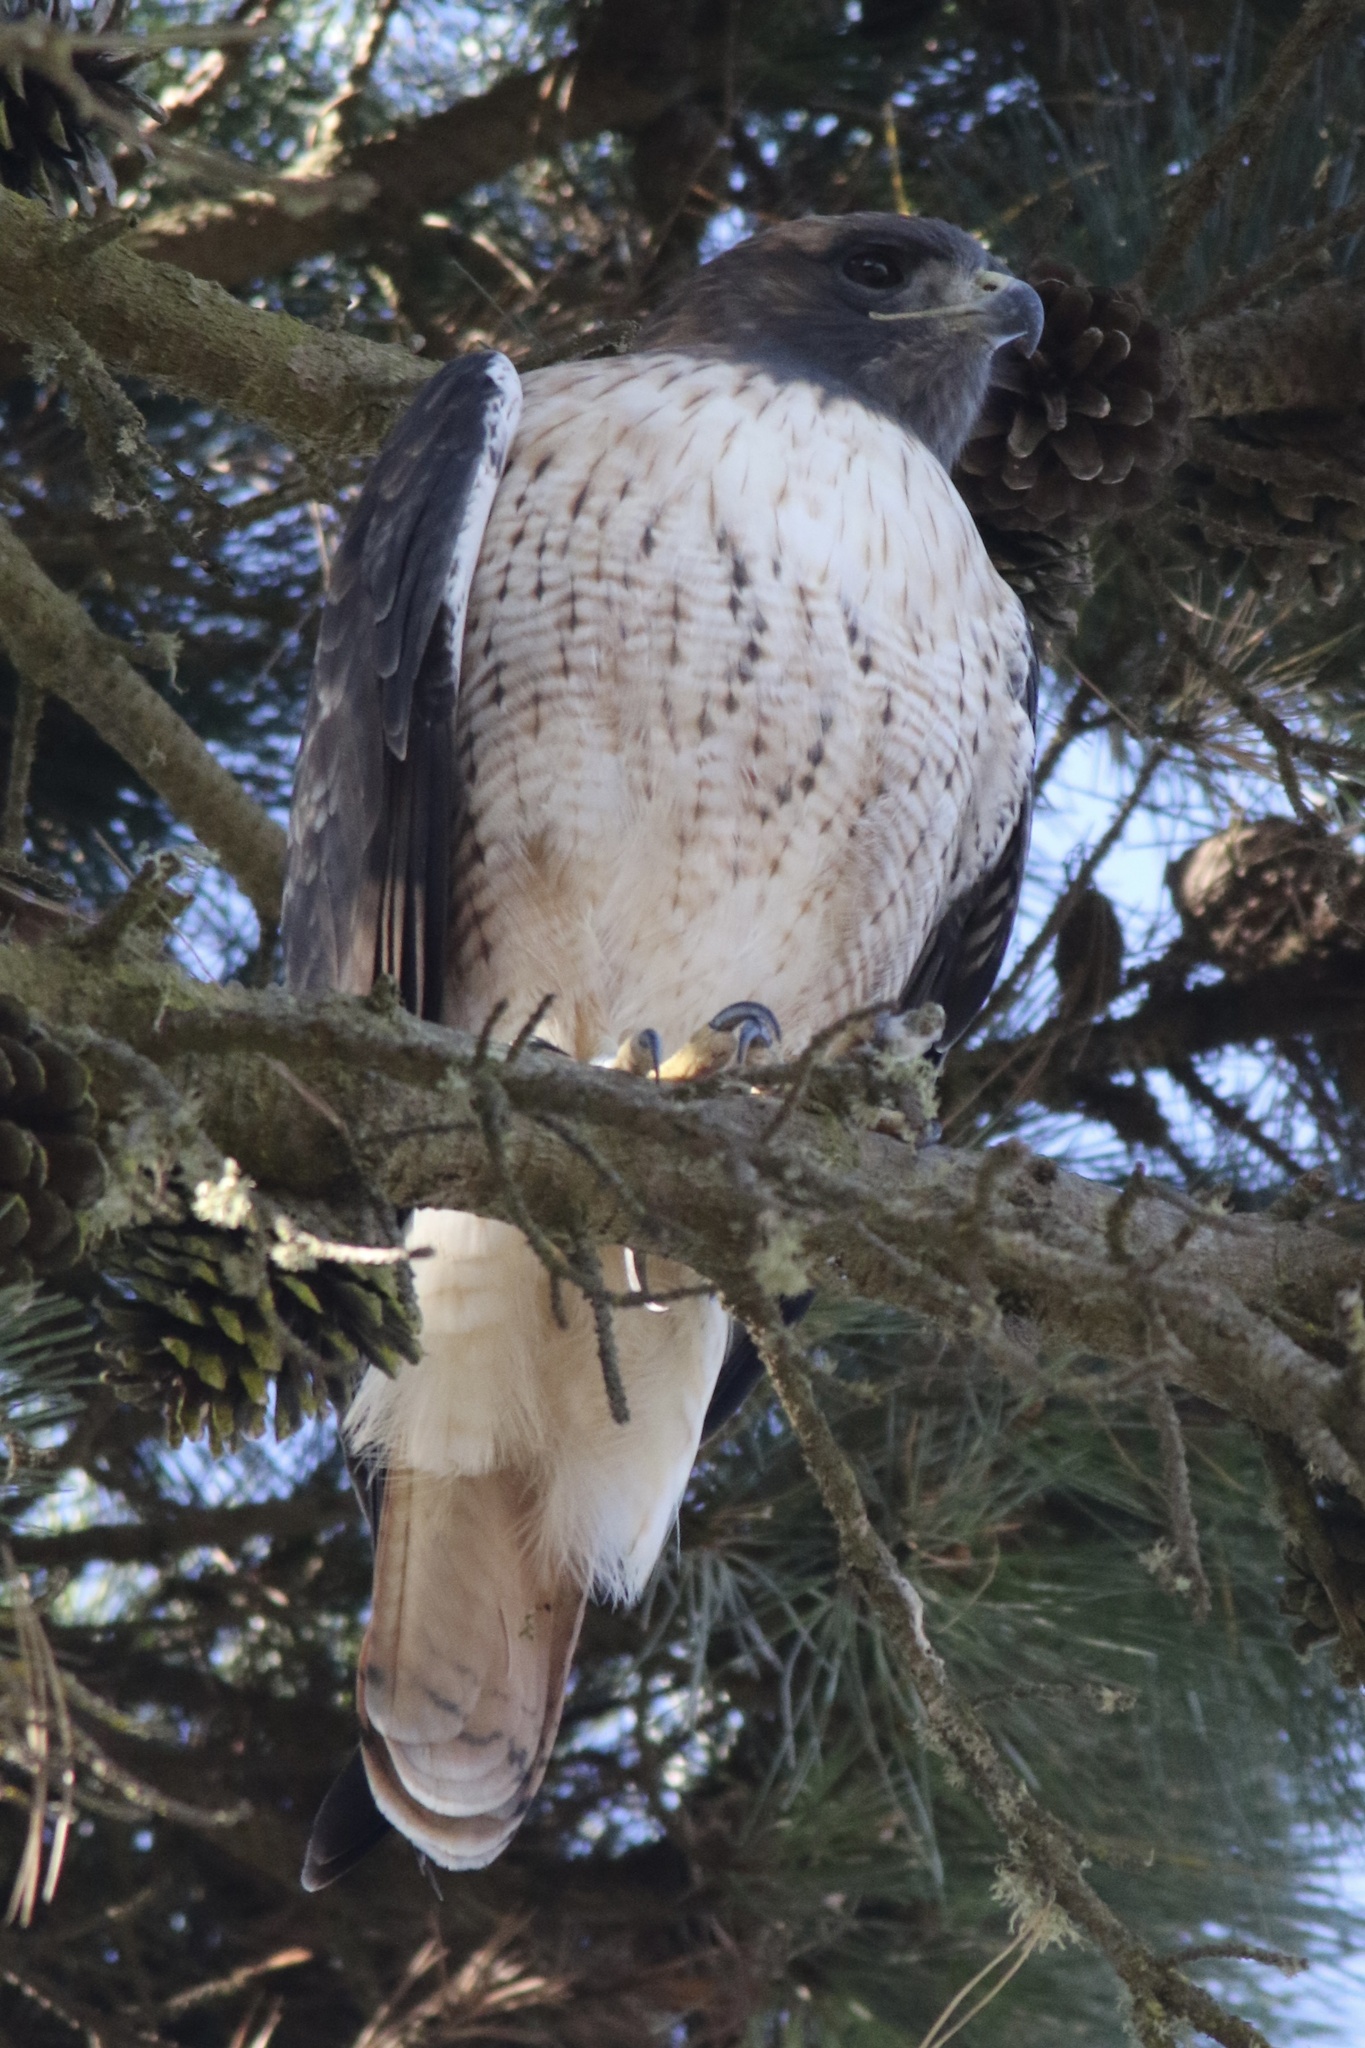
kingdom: Animalia
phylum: Chordata
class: Aves
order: Accipitriformes
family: Accipitridae
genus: Buteo
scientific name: Buteo jamaicensis
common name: Red-tailed hawk
